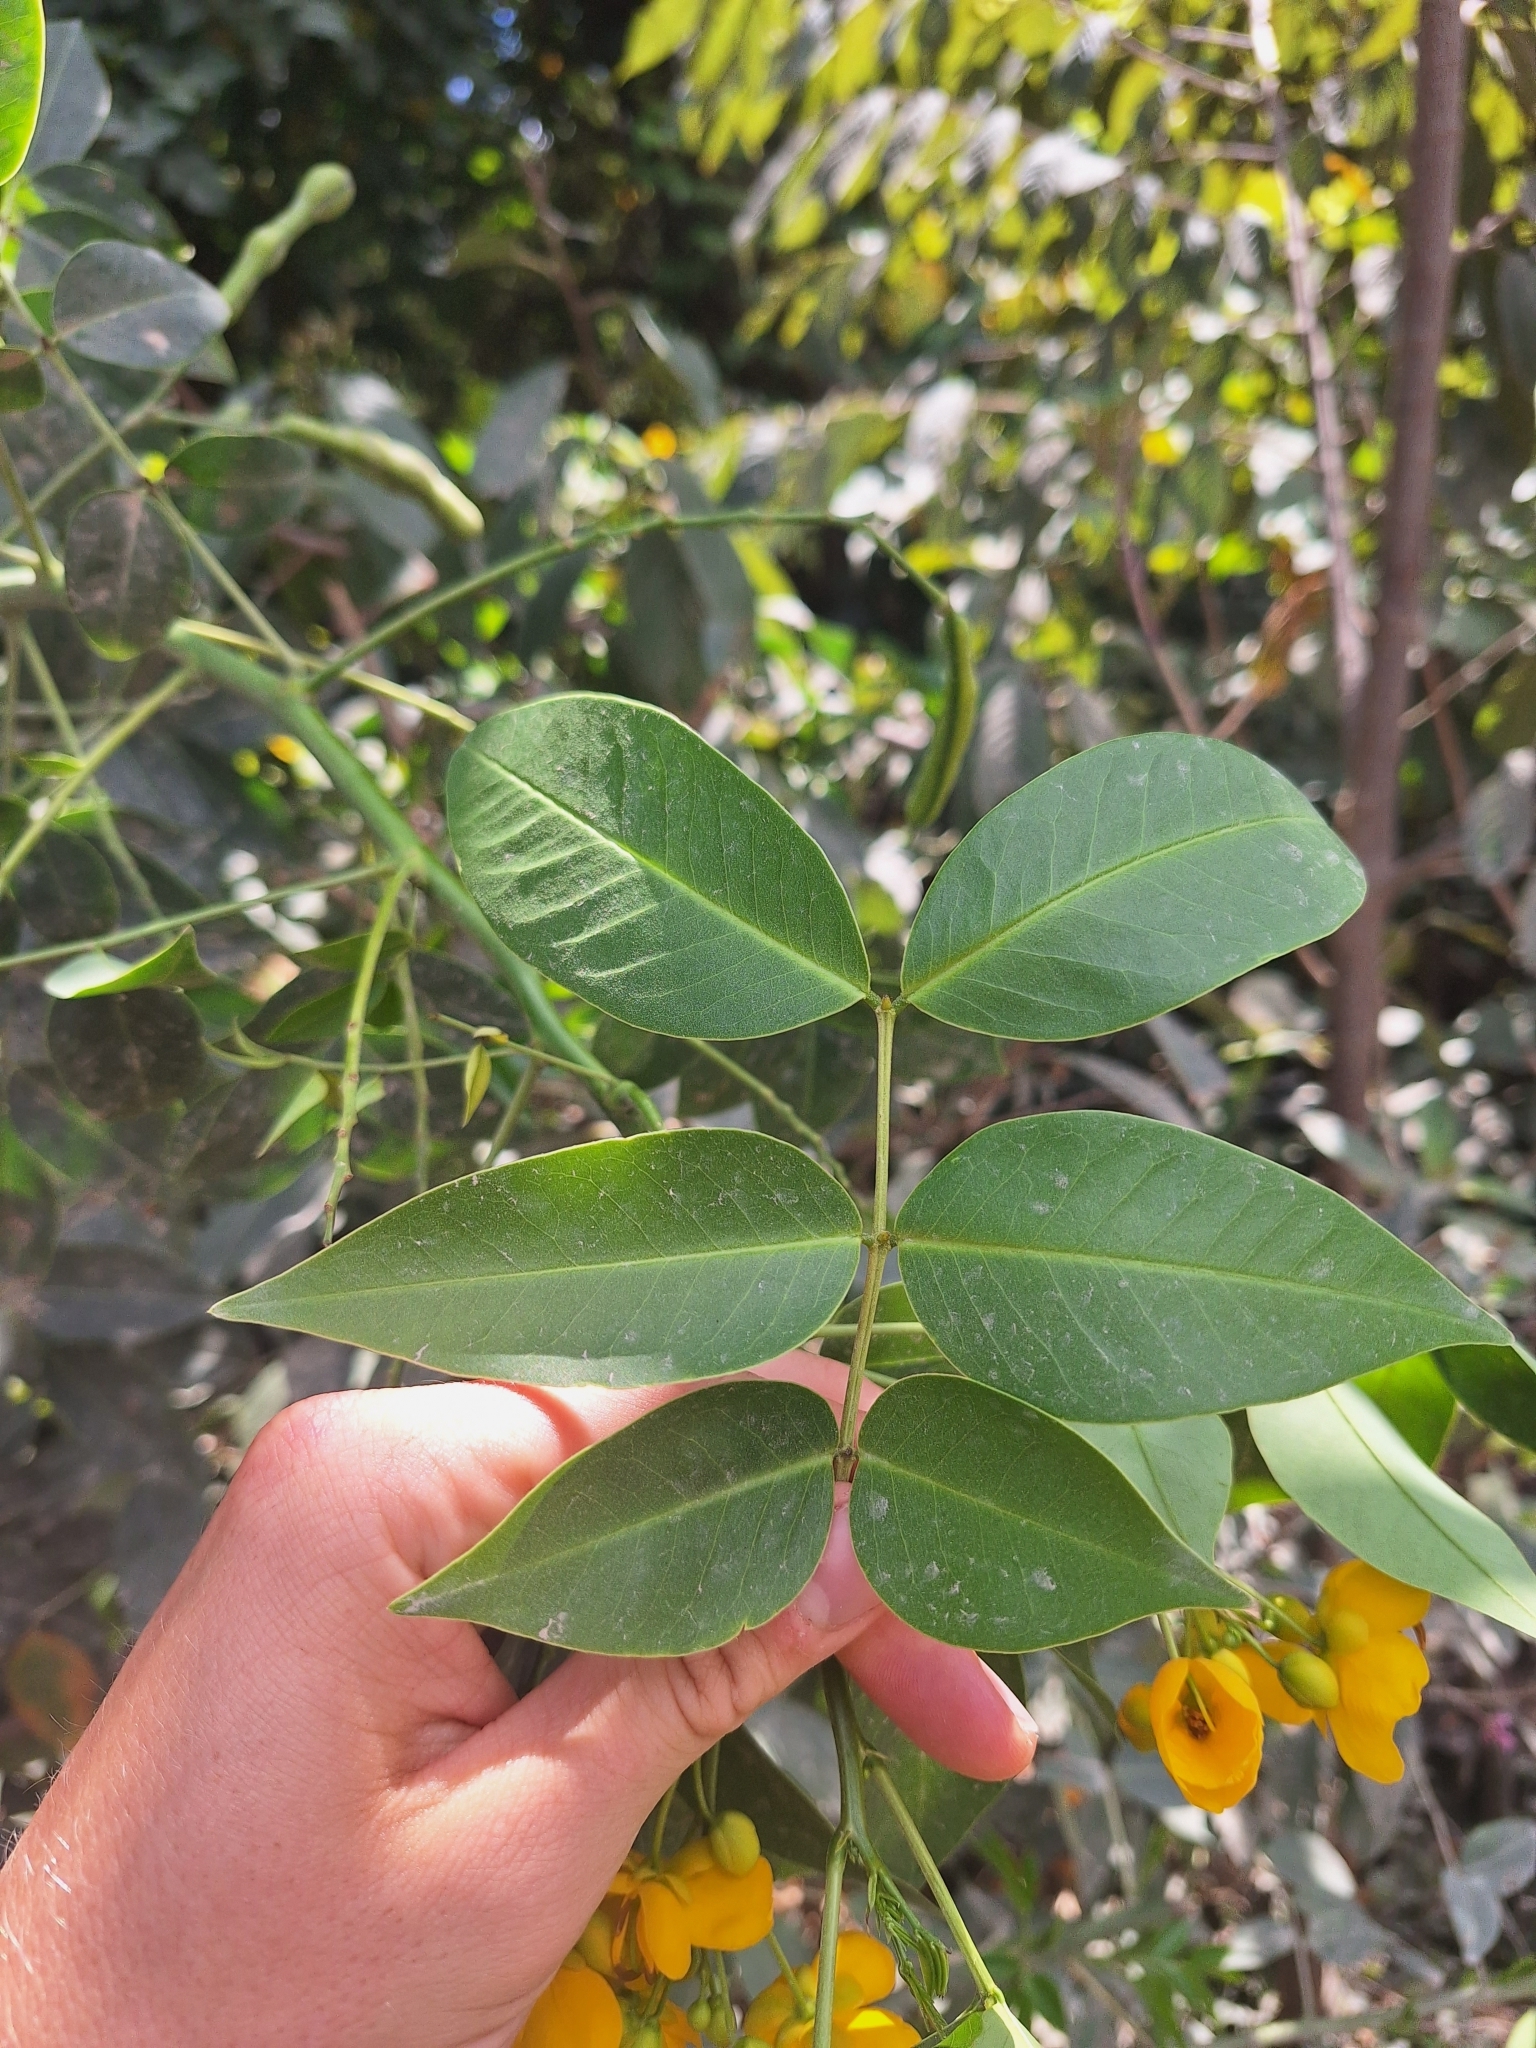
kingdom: Plantae
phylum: Tracheophyta
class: Magnoliopsida
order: Fabales
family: Fabaceae
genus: Senna
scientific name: Senna septemtrionalis
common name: Arsenic bush
